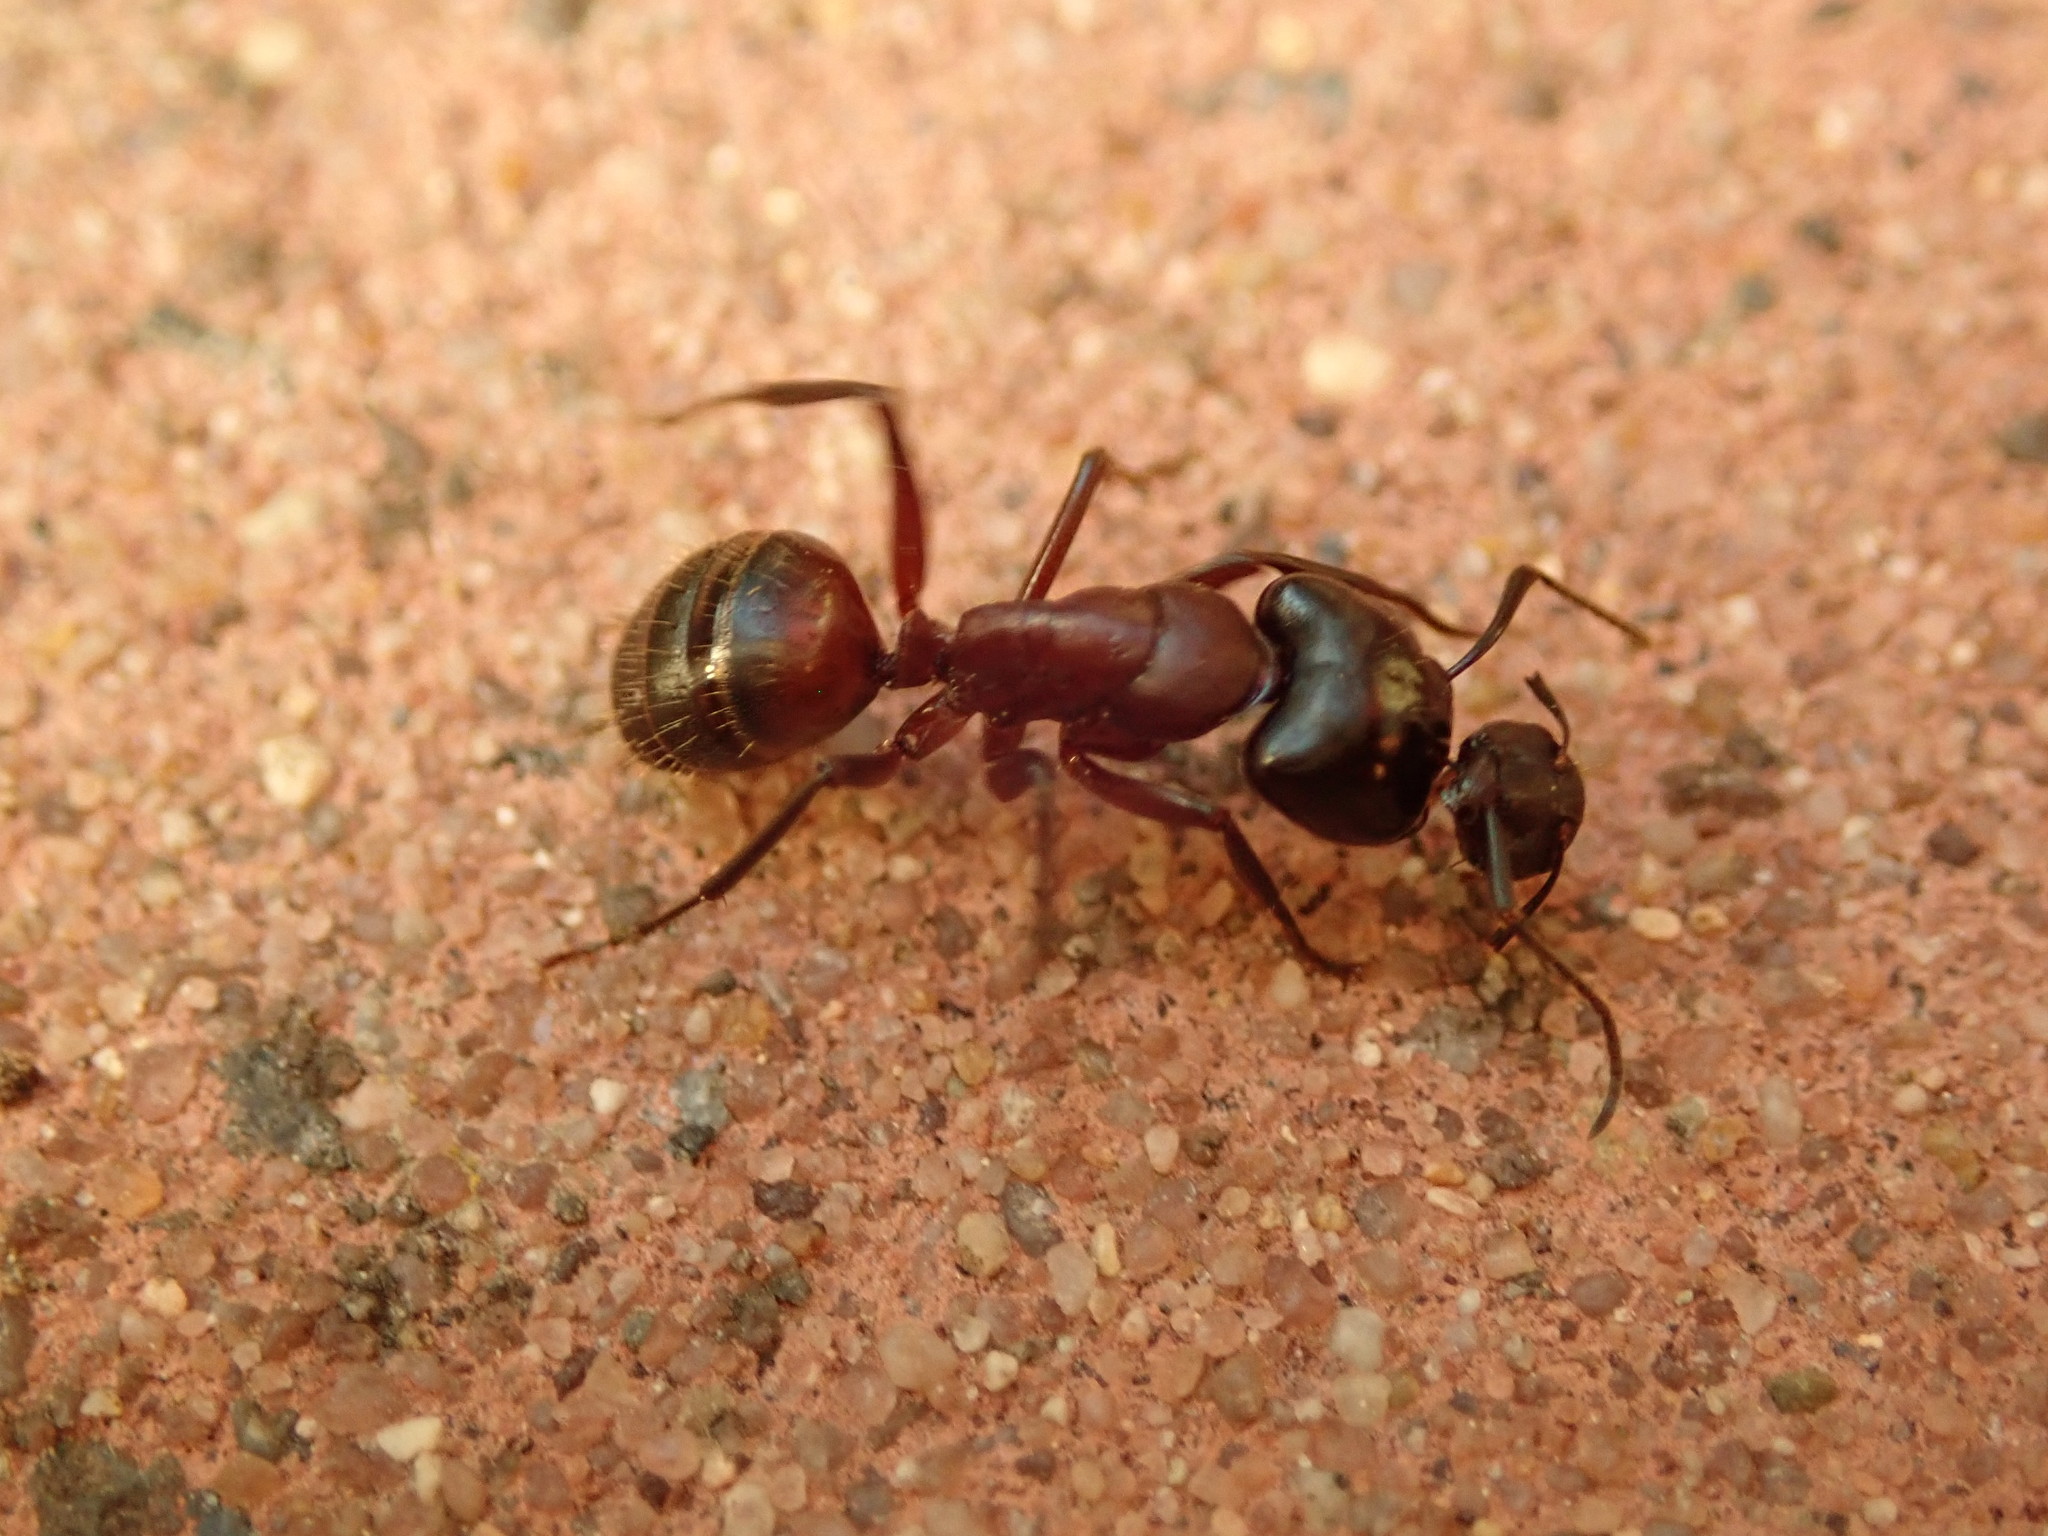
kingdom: Animalia
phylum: Arthropoda
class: Insecta
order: Hymenoptera
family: Formicidae
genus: Camponotus
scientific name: Camponotus ligniperdus
